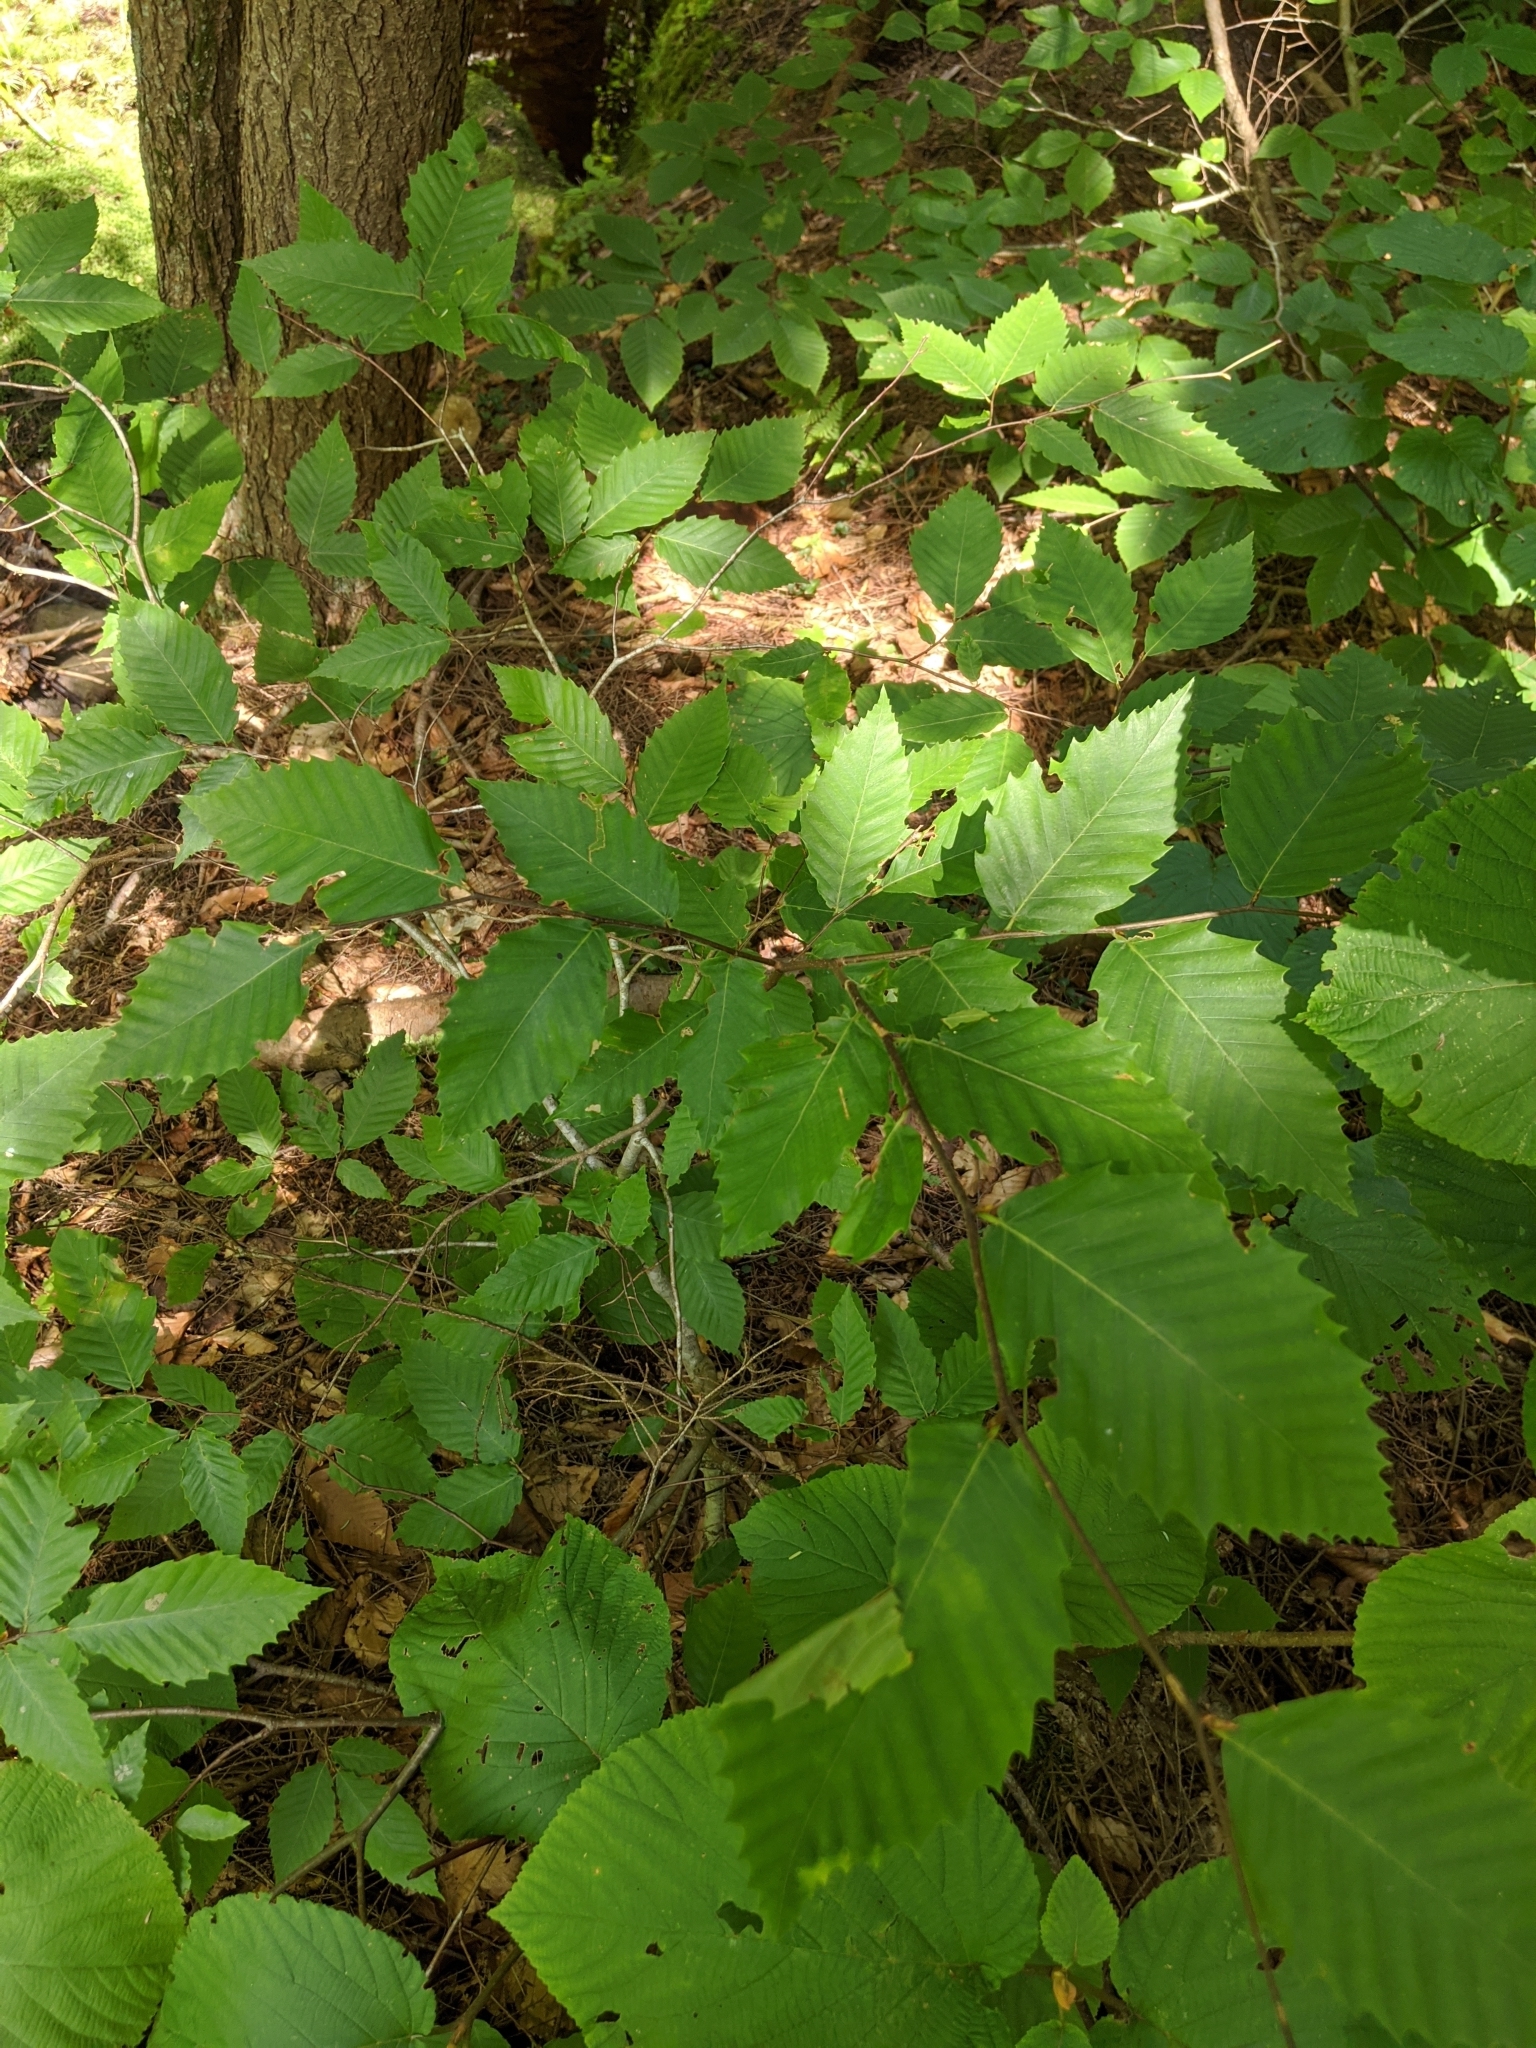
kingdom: Plantae
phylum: Tracheophyta
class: Magnoliopsida
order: Fagales
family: Fagaceae
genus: Fagus
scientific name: Fagus grandifolia
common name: American beech
